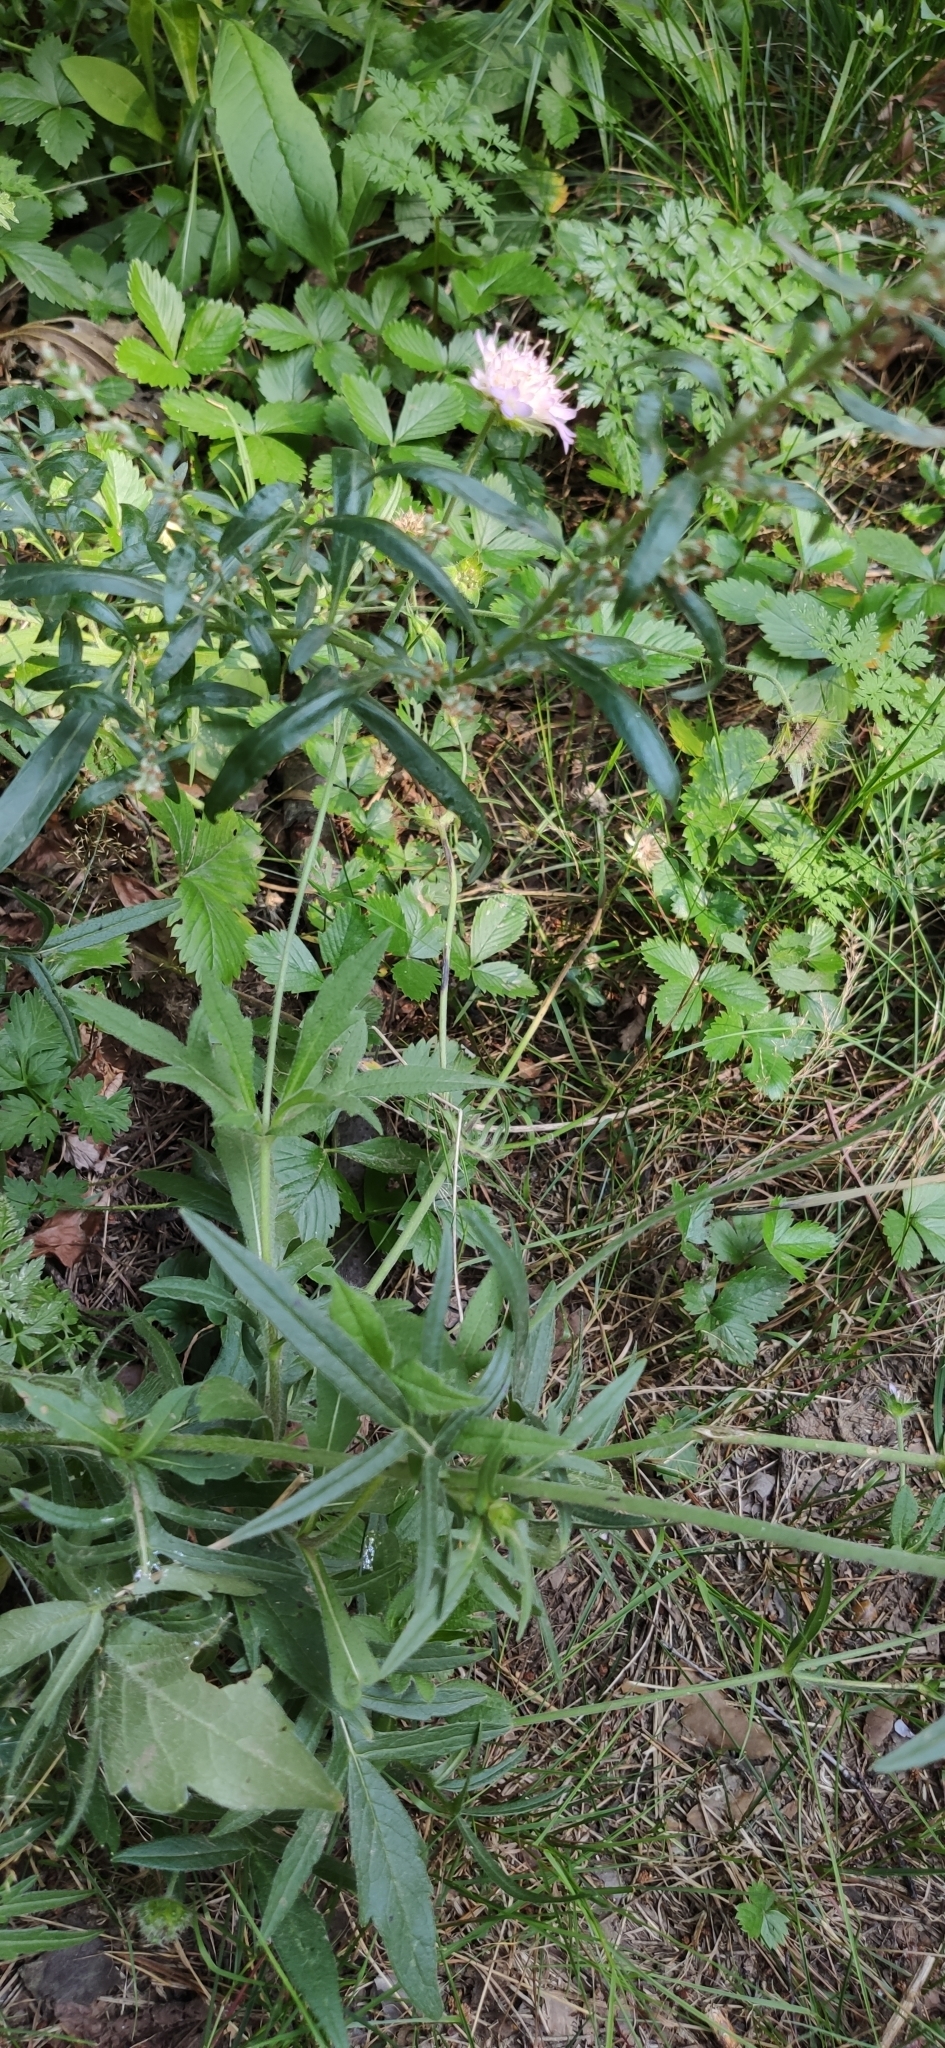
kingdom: Plantae
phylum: Tracheophyta
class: Magnoliopsida
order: Dipsacales
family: Caprifoliaceae
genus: Knautia
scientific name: Knautia arvensis
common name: Field scabiosa
